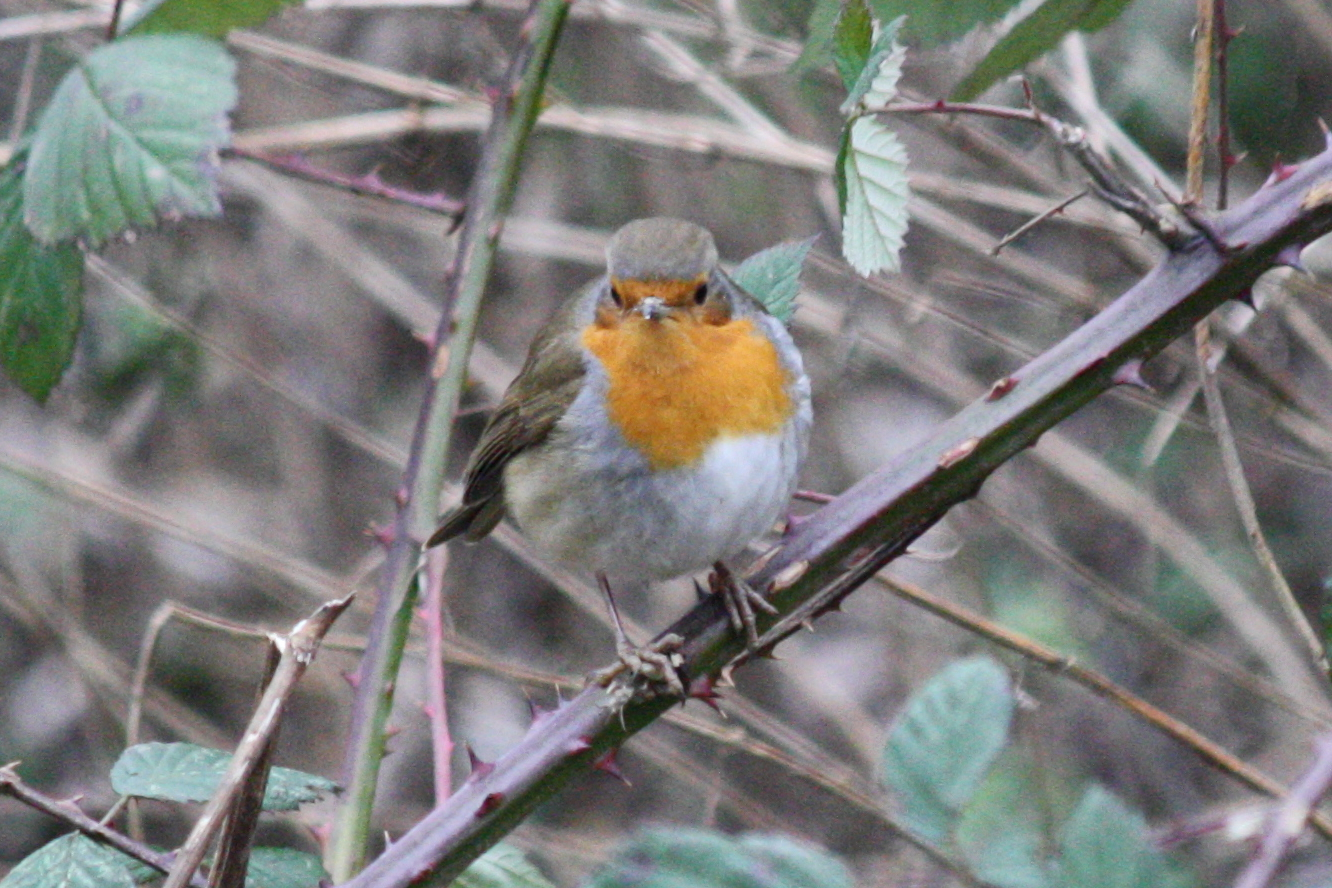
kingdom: Animalia
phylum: Chordata
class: Aves
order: Passeriformes
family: Muscicapidae
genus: Erithacus
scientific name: Erithacus rubecula
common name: European robin
